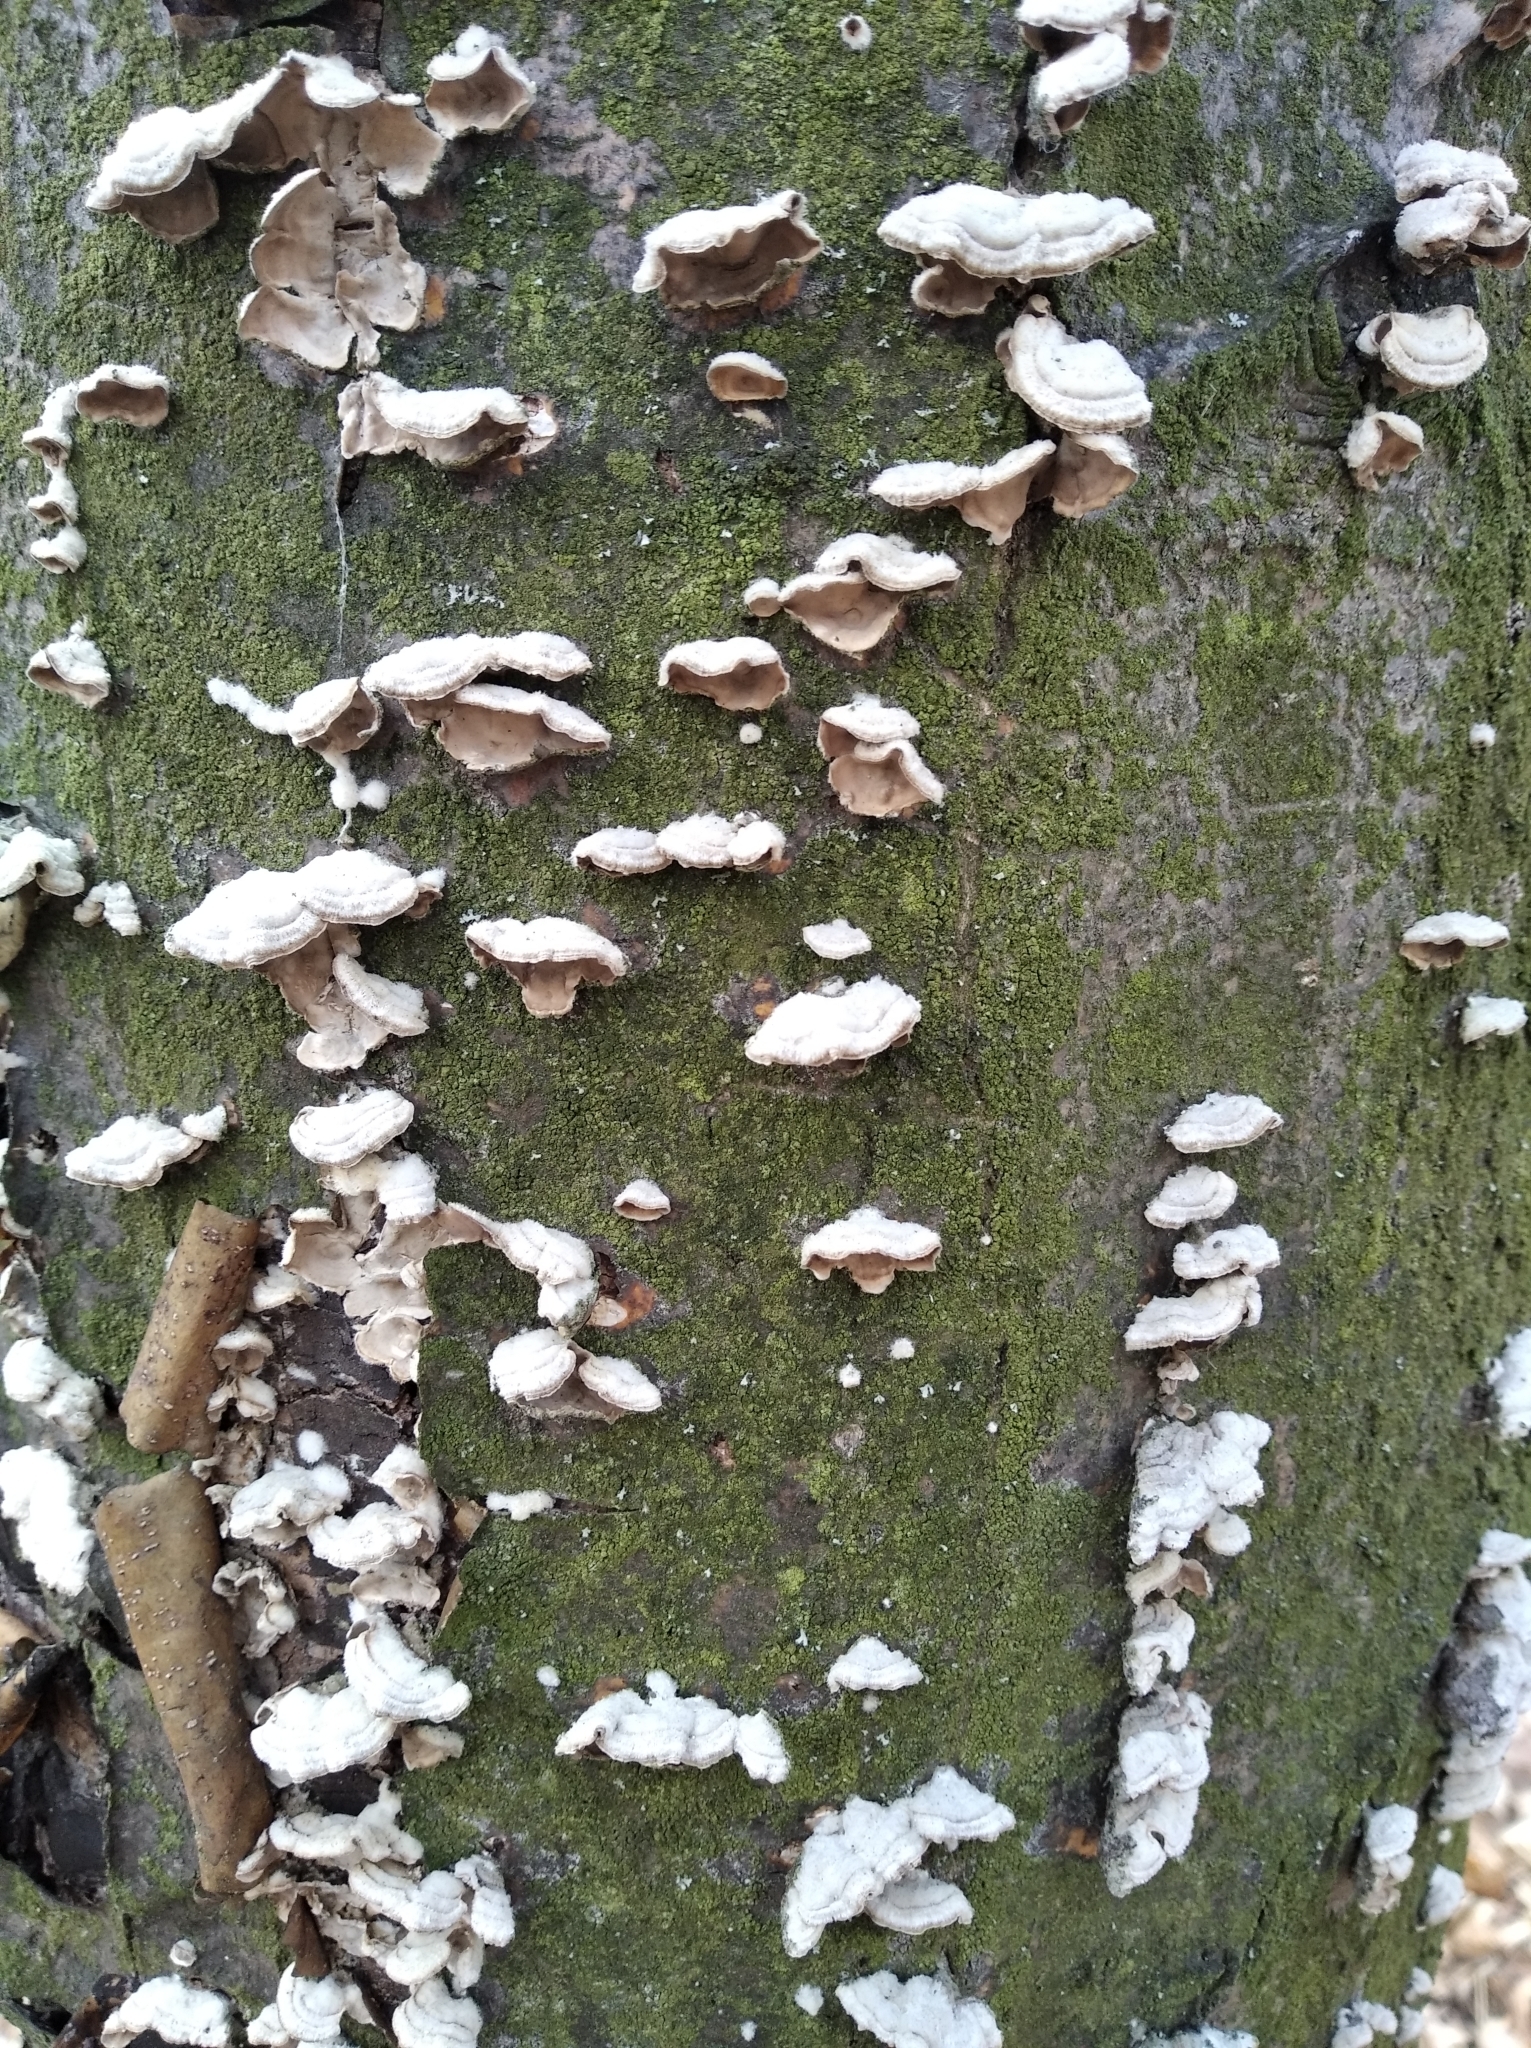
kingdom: Fungi
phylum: Basidiomycota
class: Agaricomycetes
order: Agaricales
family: Schizophyllaceae
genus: Schizophyllum
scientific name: Schizophyllum commune
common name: Common porecrust
